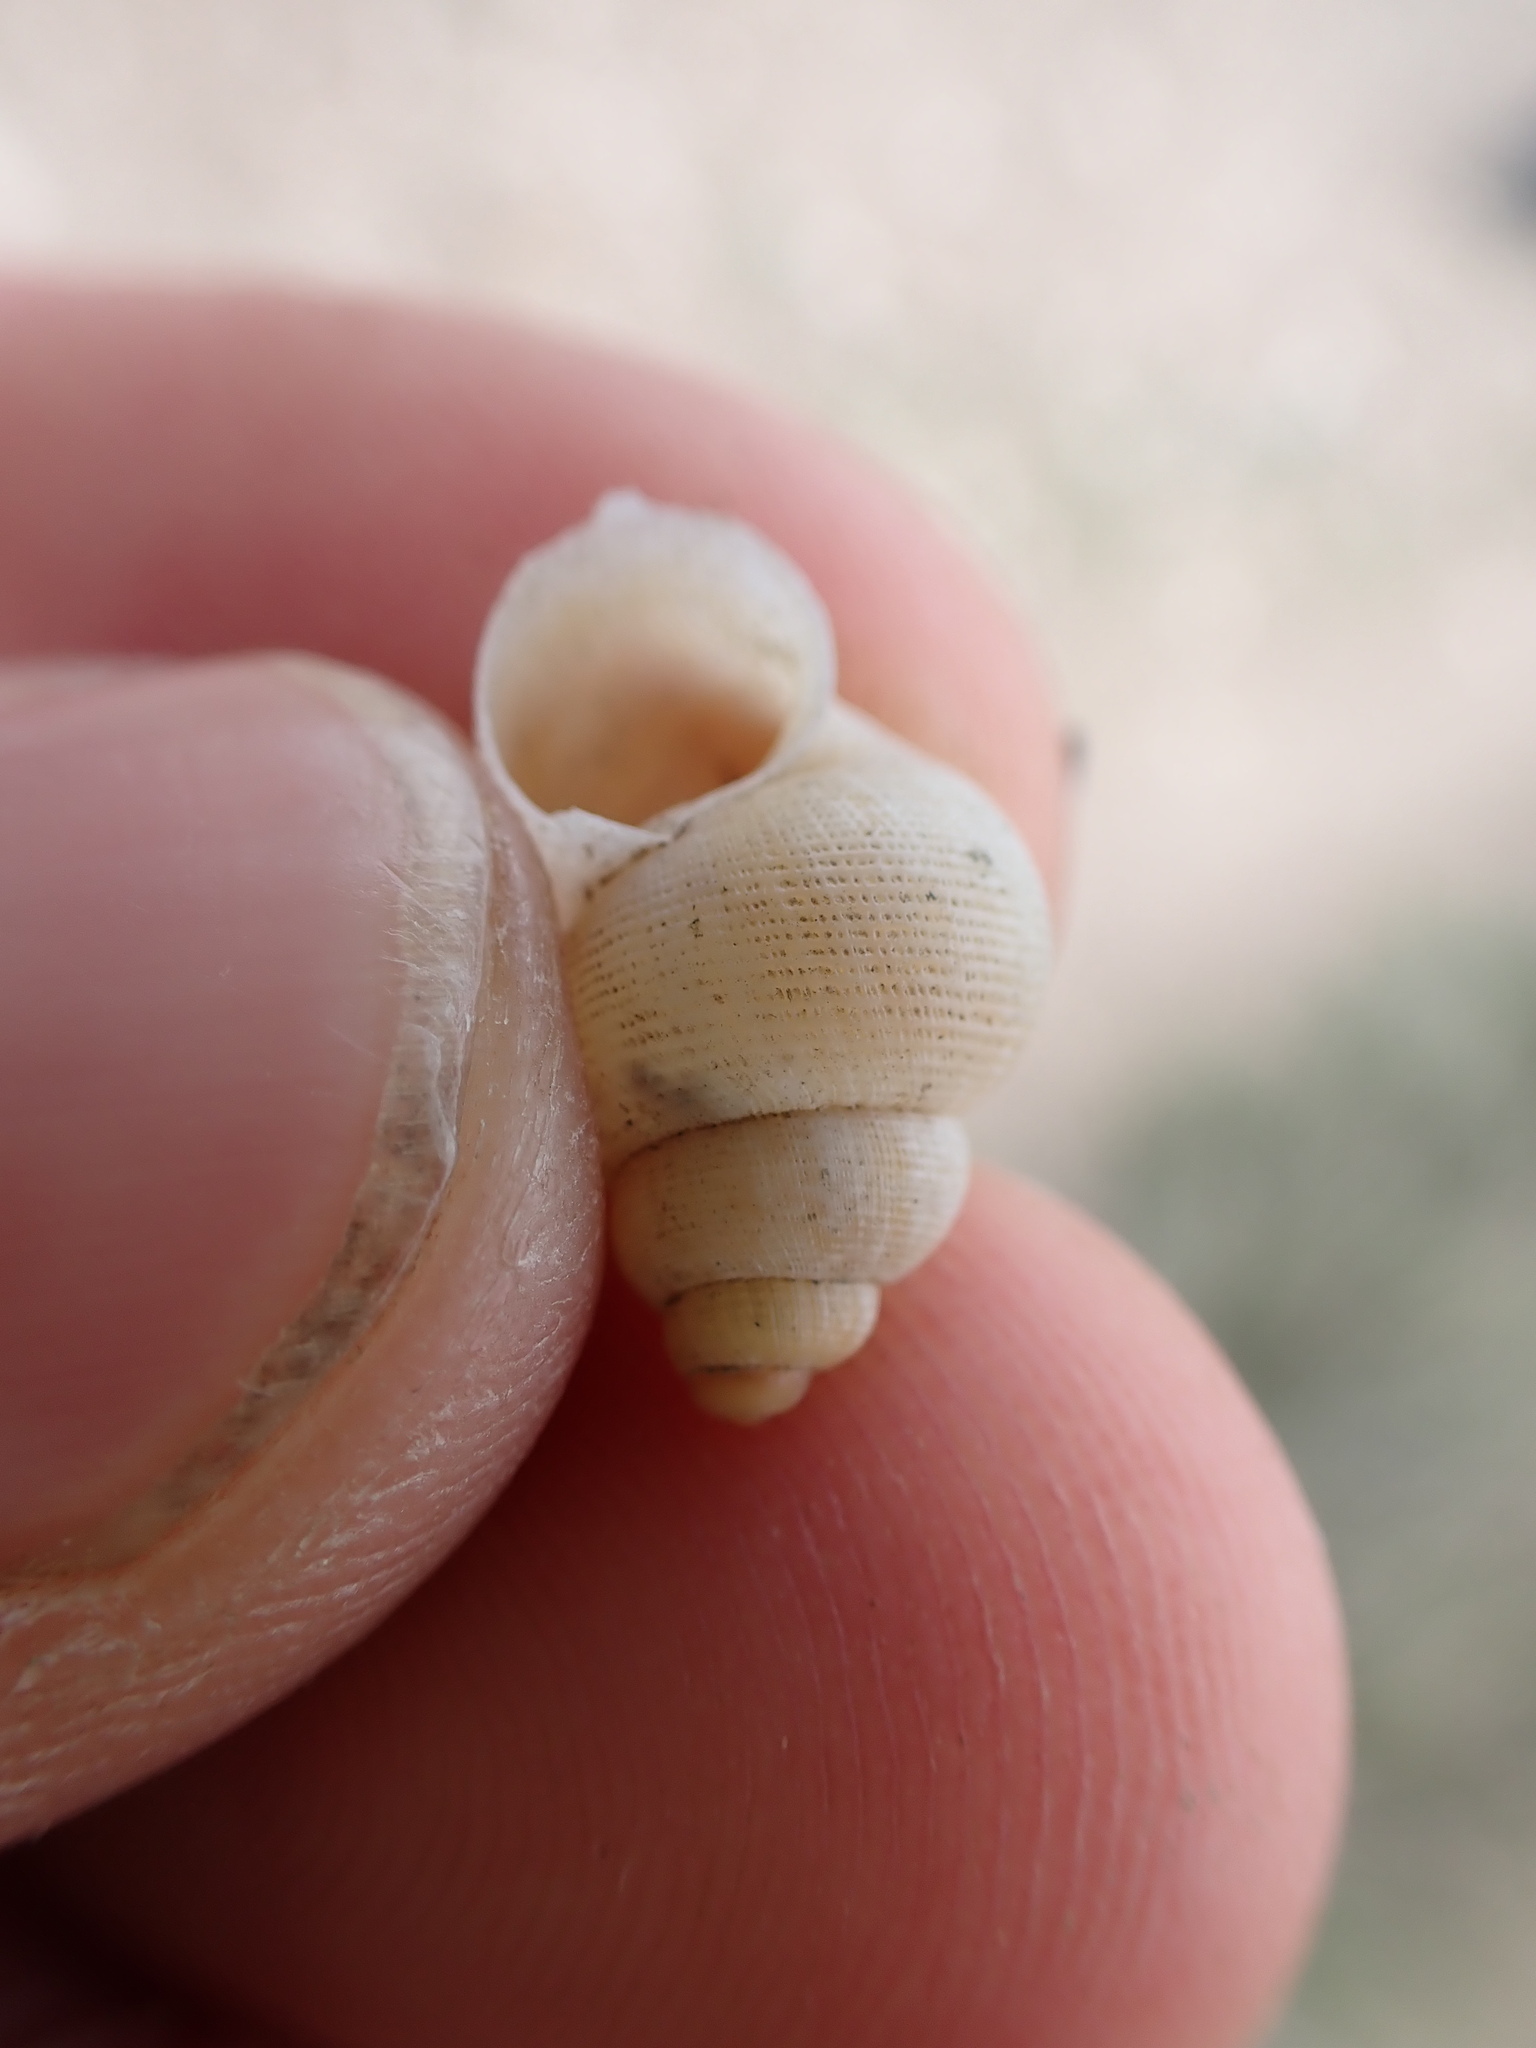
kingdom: Animalia
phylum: Mollusca
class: Gastropoda
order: Littorinimorpha
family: Pomatiidae
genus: Pomatias
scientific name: Pomatias elegans
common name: Red-mouthed snail
